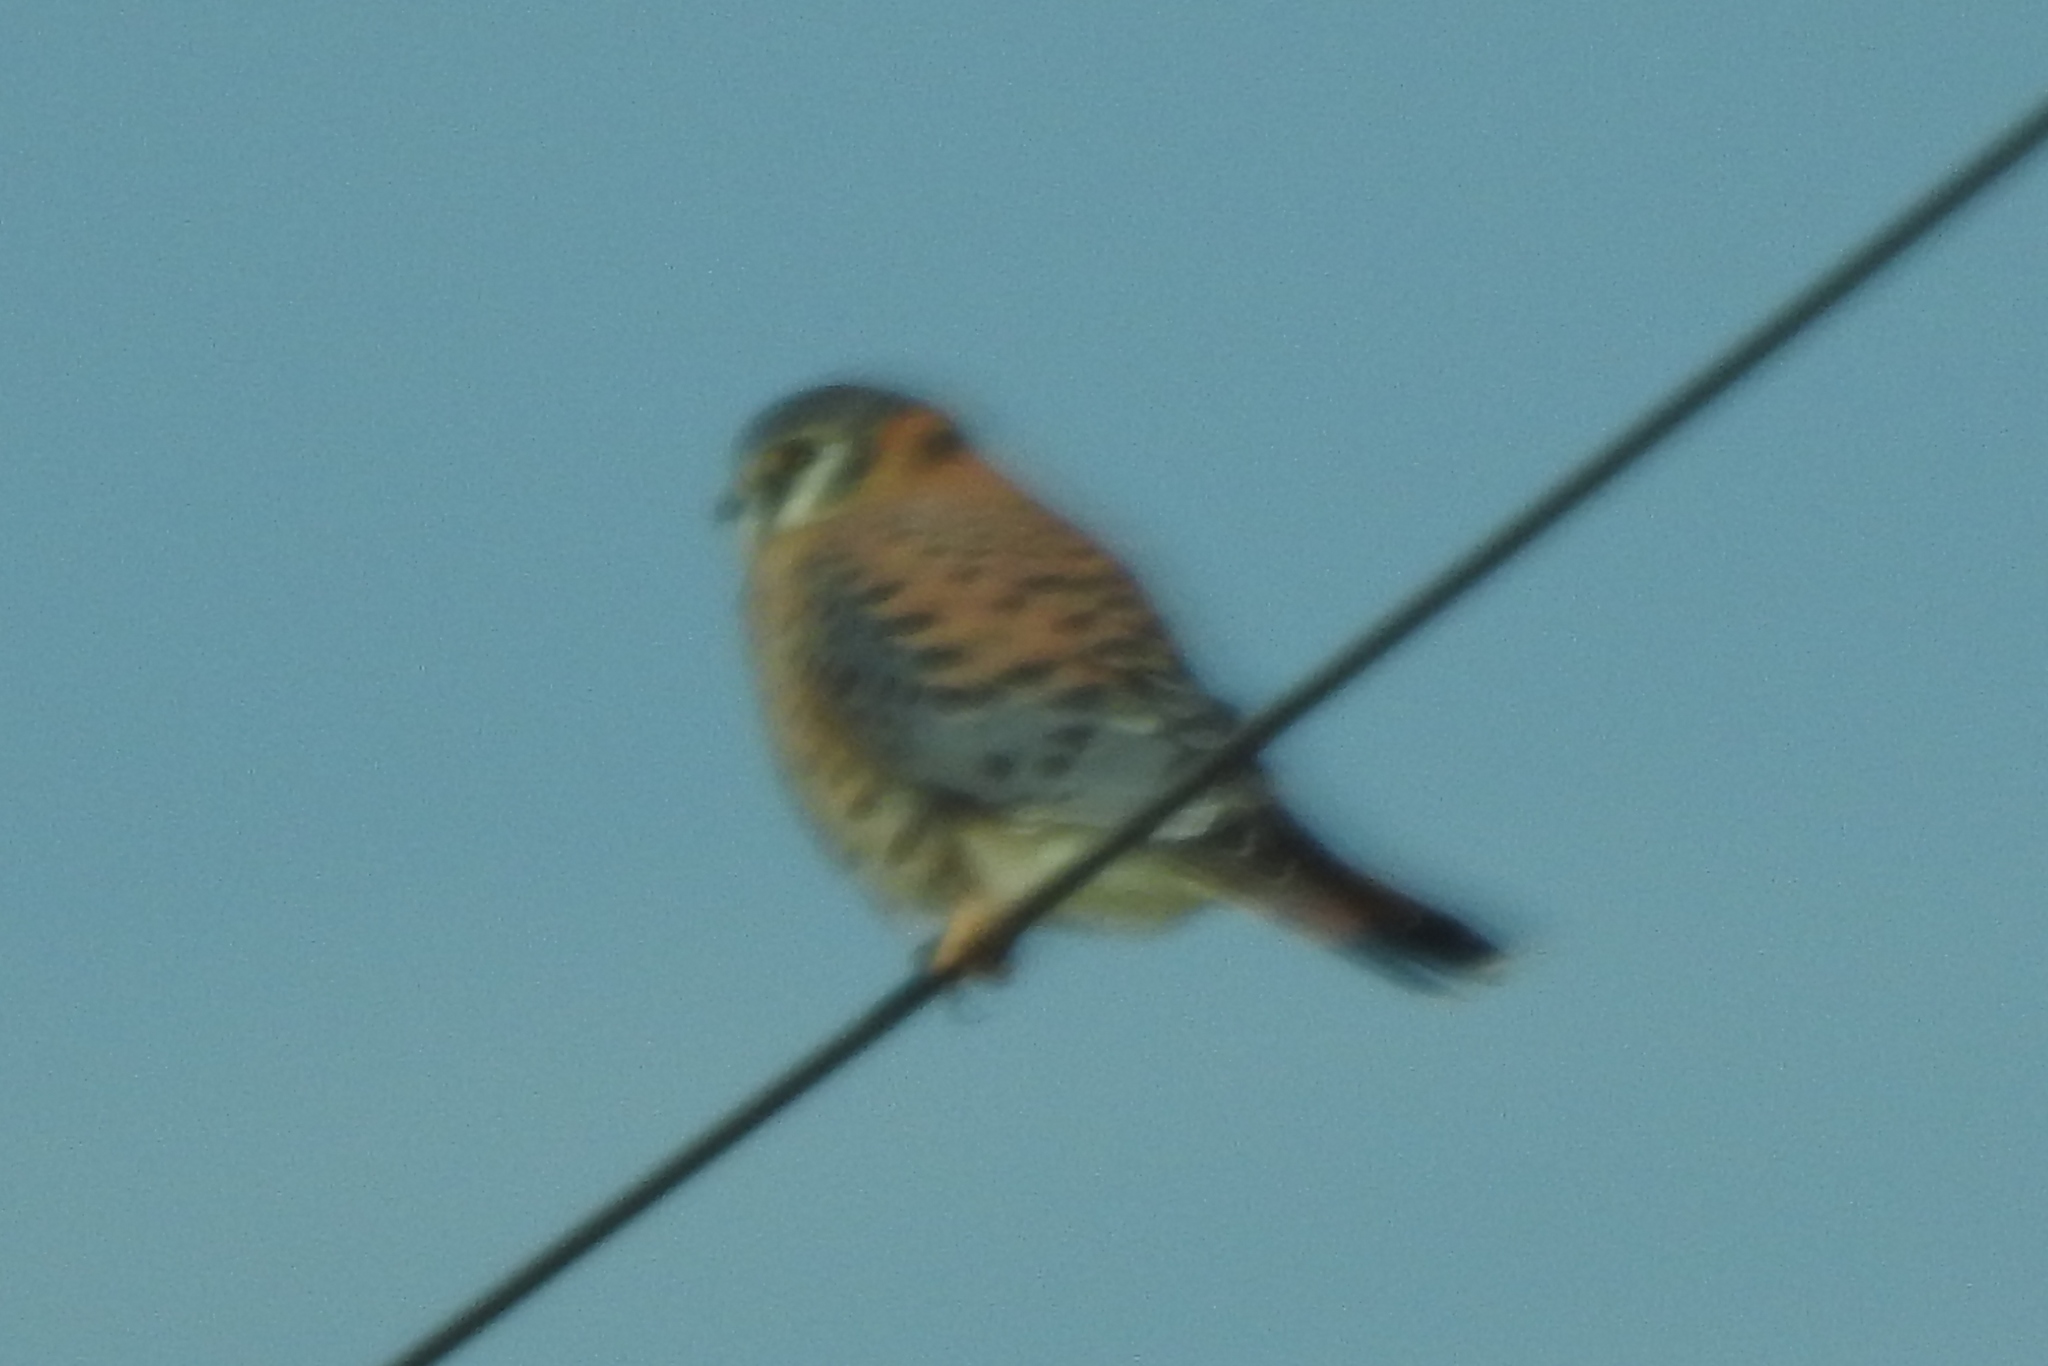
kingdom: Animalia
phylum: Chordata
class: Aves
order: Falconiformes
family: Falconidae
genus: Falco
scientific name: Falco sparverius
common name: American kestrel
